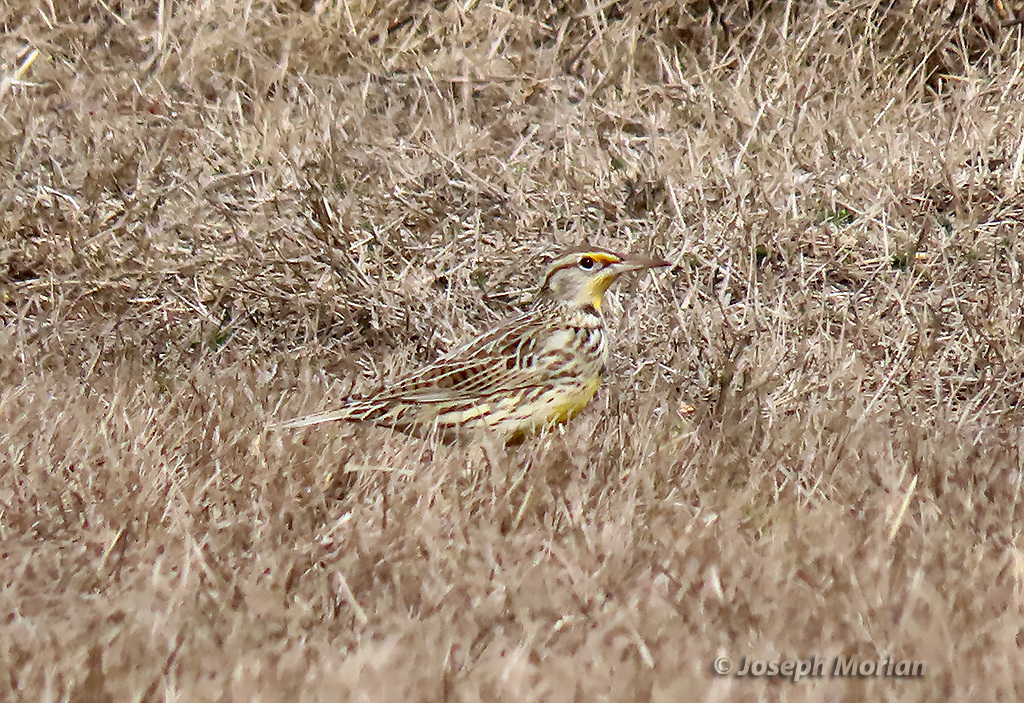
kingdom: Animalia
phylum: Chordata
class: Aves
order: Passeriformes
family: Icteridae
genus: Sturnella
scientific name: Sturnella neglecta
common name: Western meadowlark
